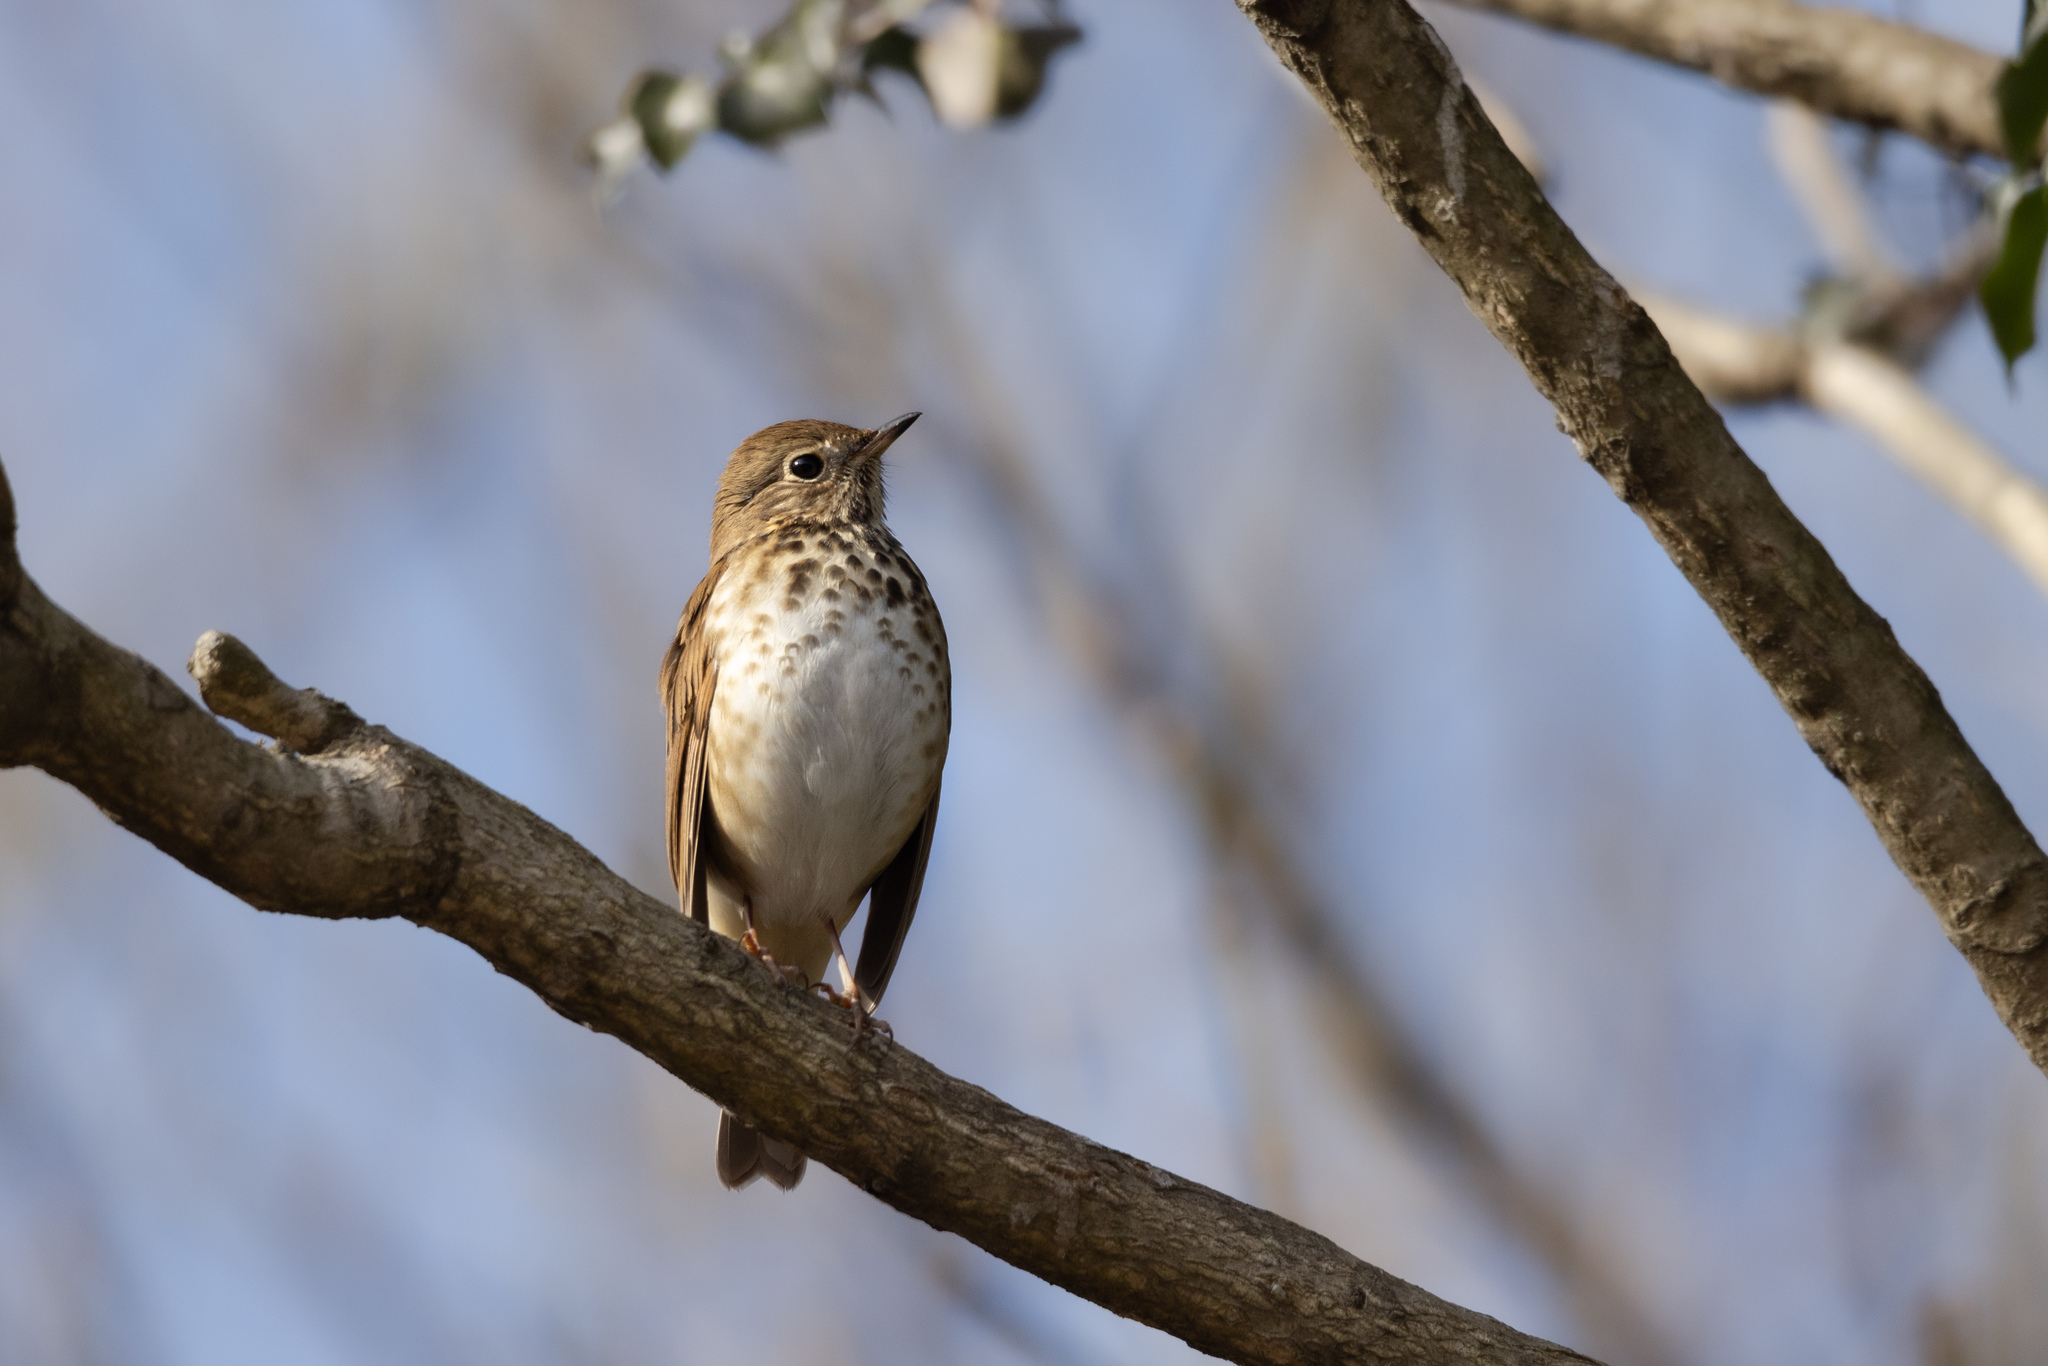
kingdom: Animalia
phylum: Chordata
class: Aves
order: Passeriformes
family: Turdidae
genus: Catharus
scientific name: Catharus guttatus
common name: Hermit thrush
